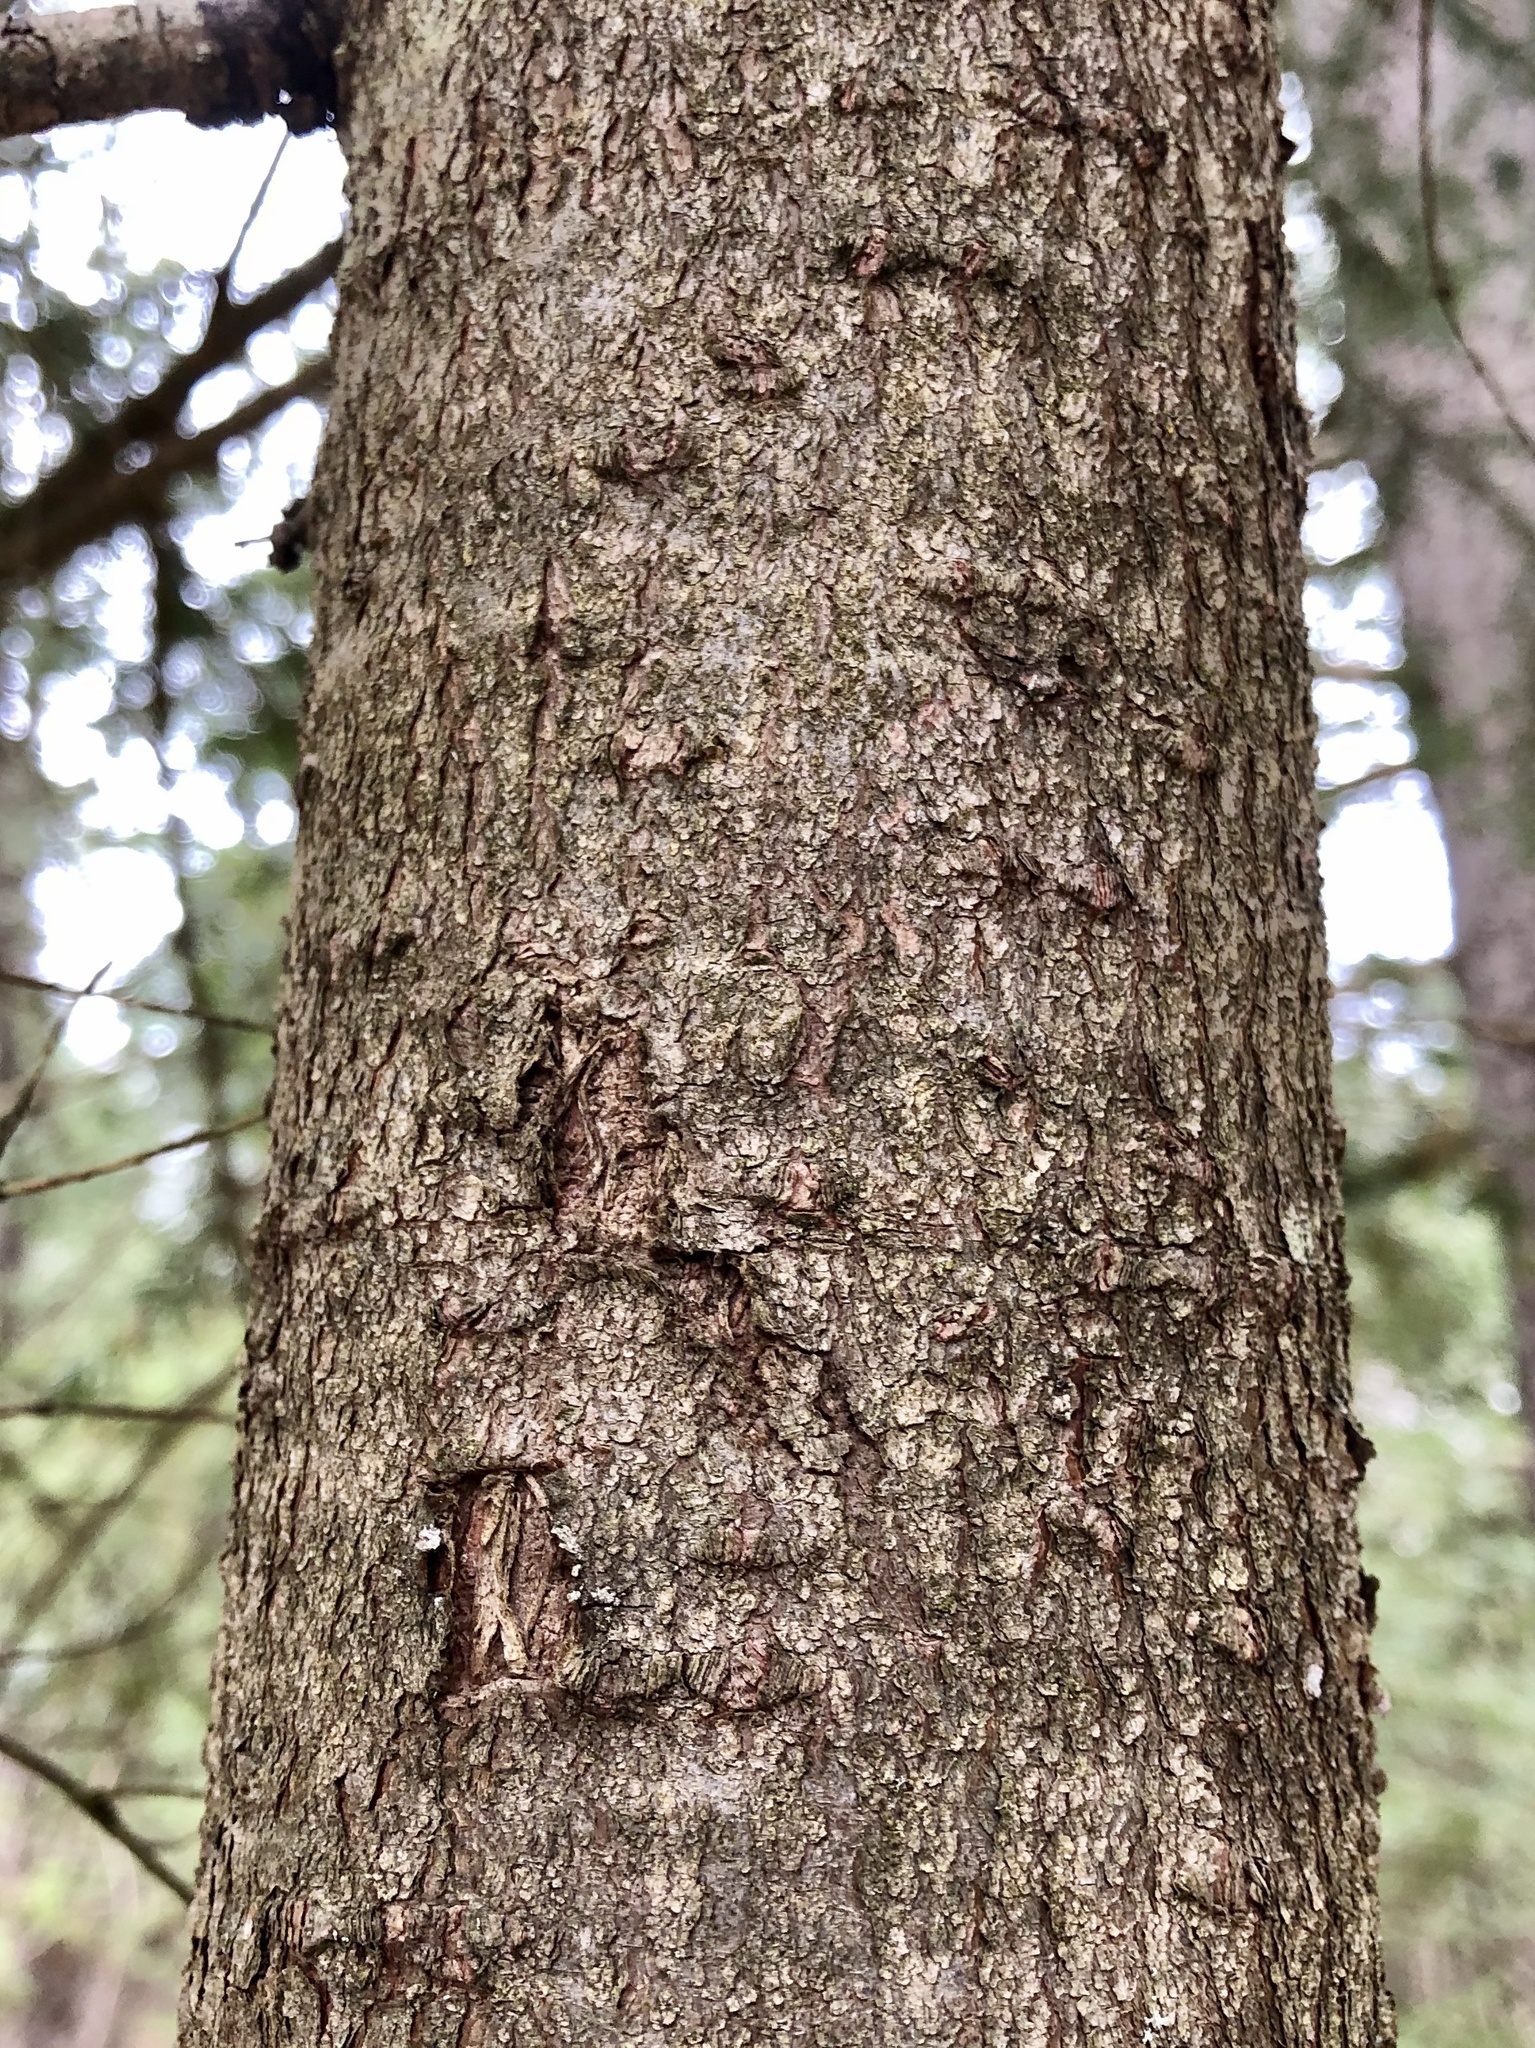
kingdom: Plantae
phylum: Tracheophyta
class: Pinopsida
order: Pinales
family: Pinaceae
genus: Abies
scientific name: Abies balsamea
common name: Balsam fir
